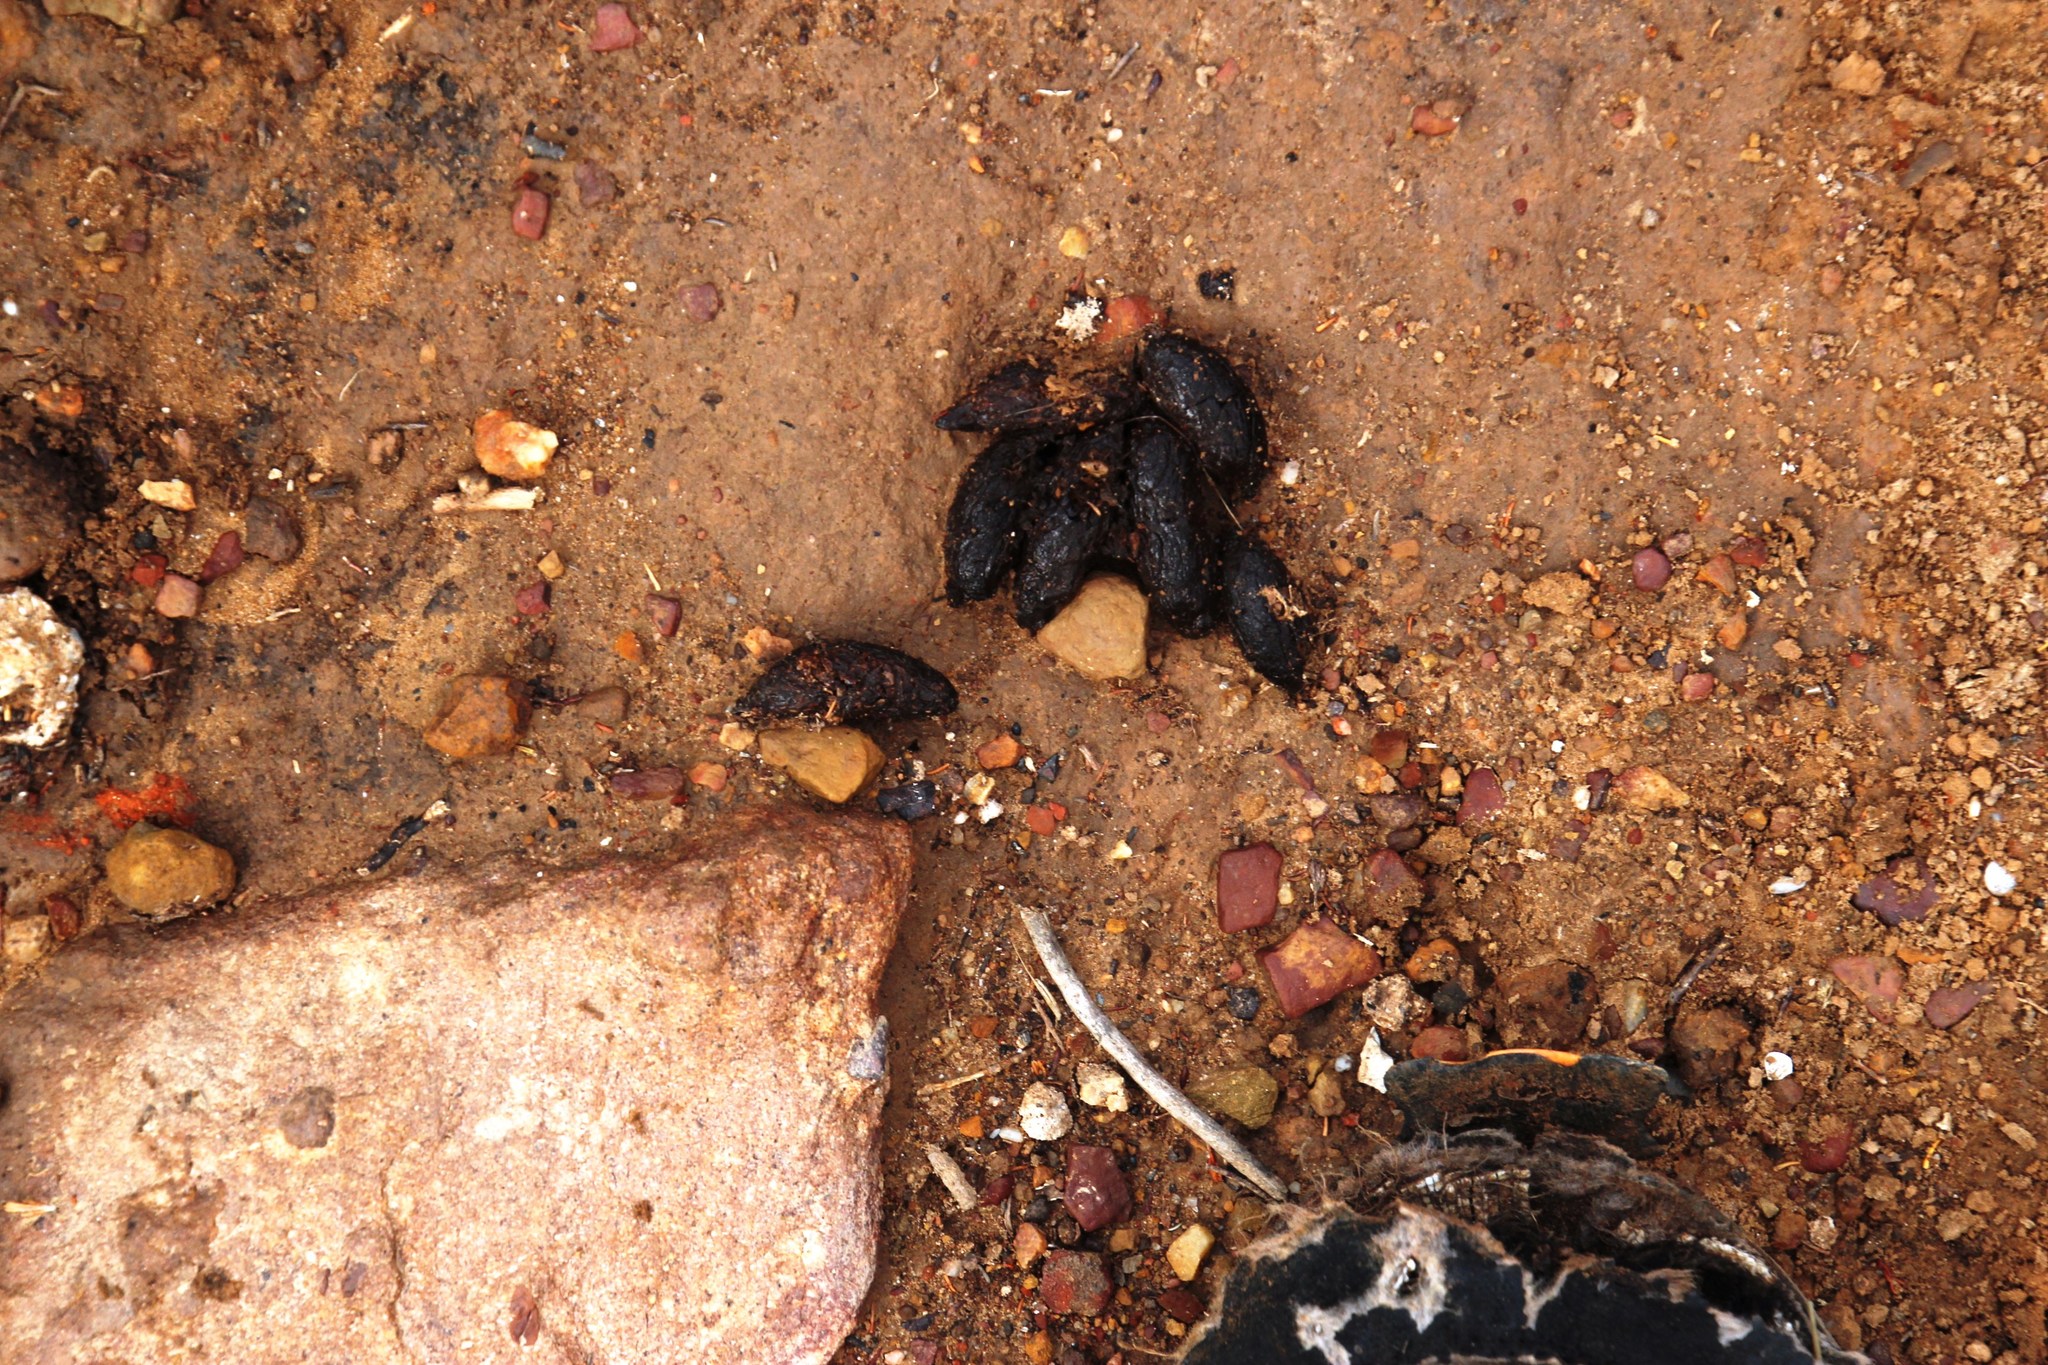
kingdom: Animalia
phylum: Chordata
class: Mammalia
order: Rodentia
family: Hystricidae
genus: Hystrix
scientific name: Hystrix africaeaustralis
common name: Cape porcupine
